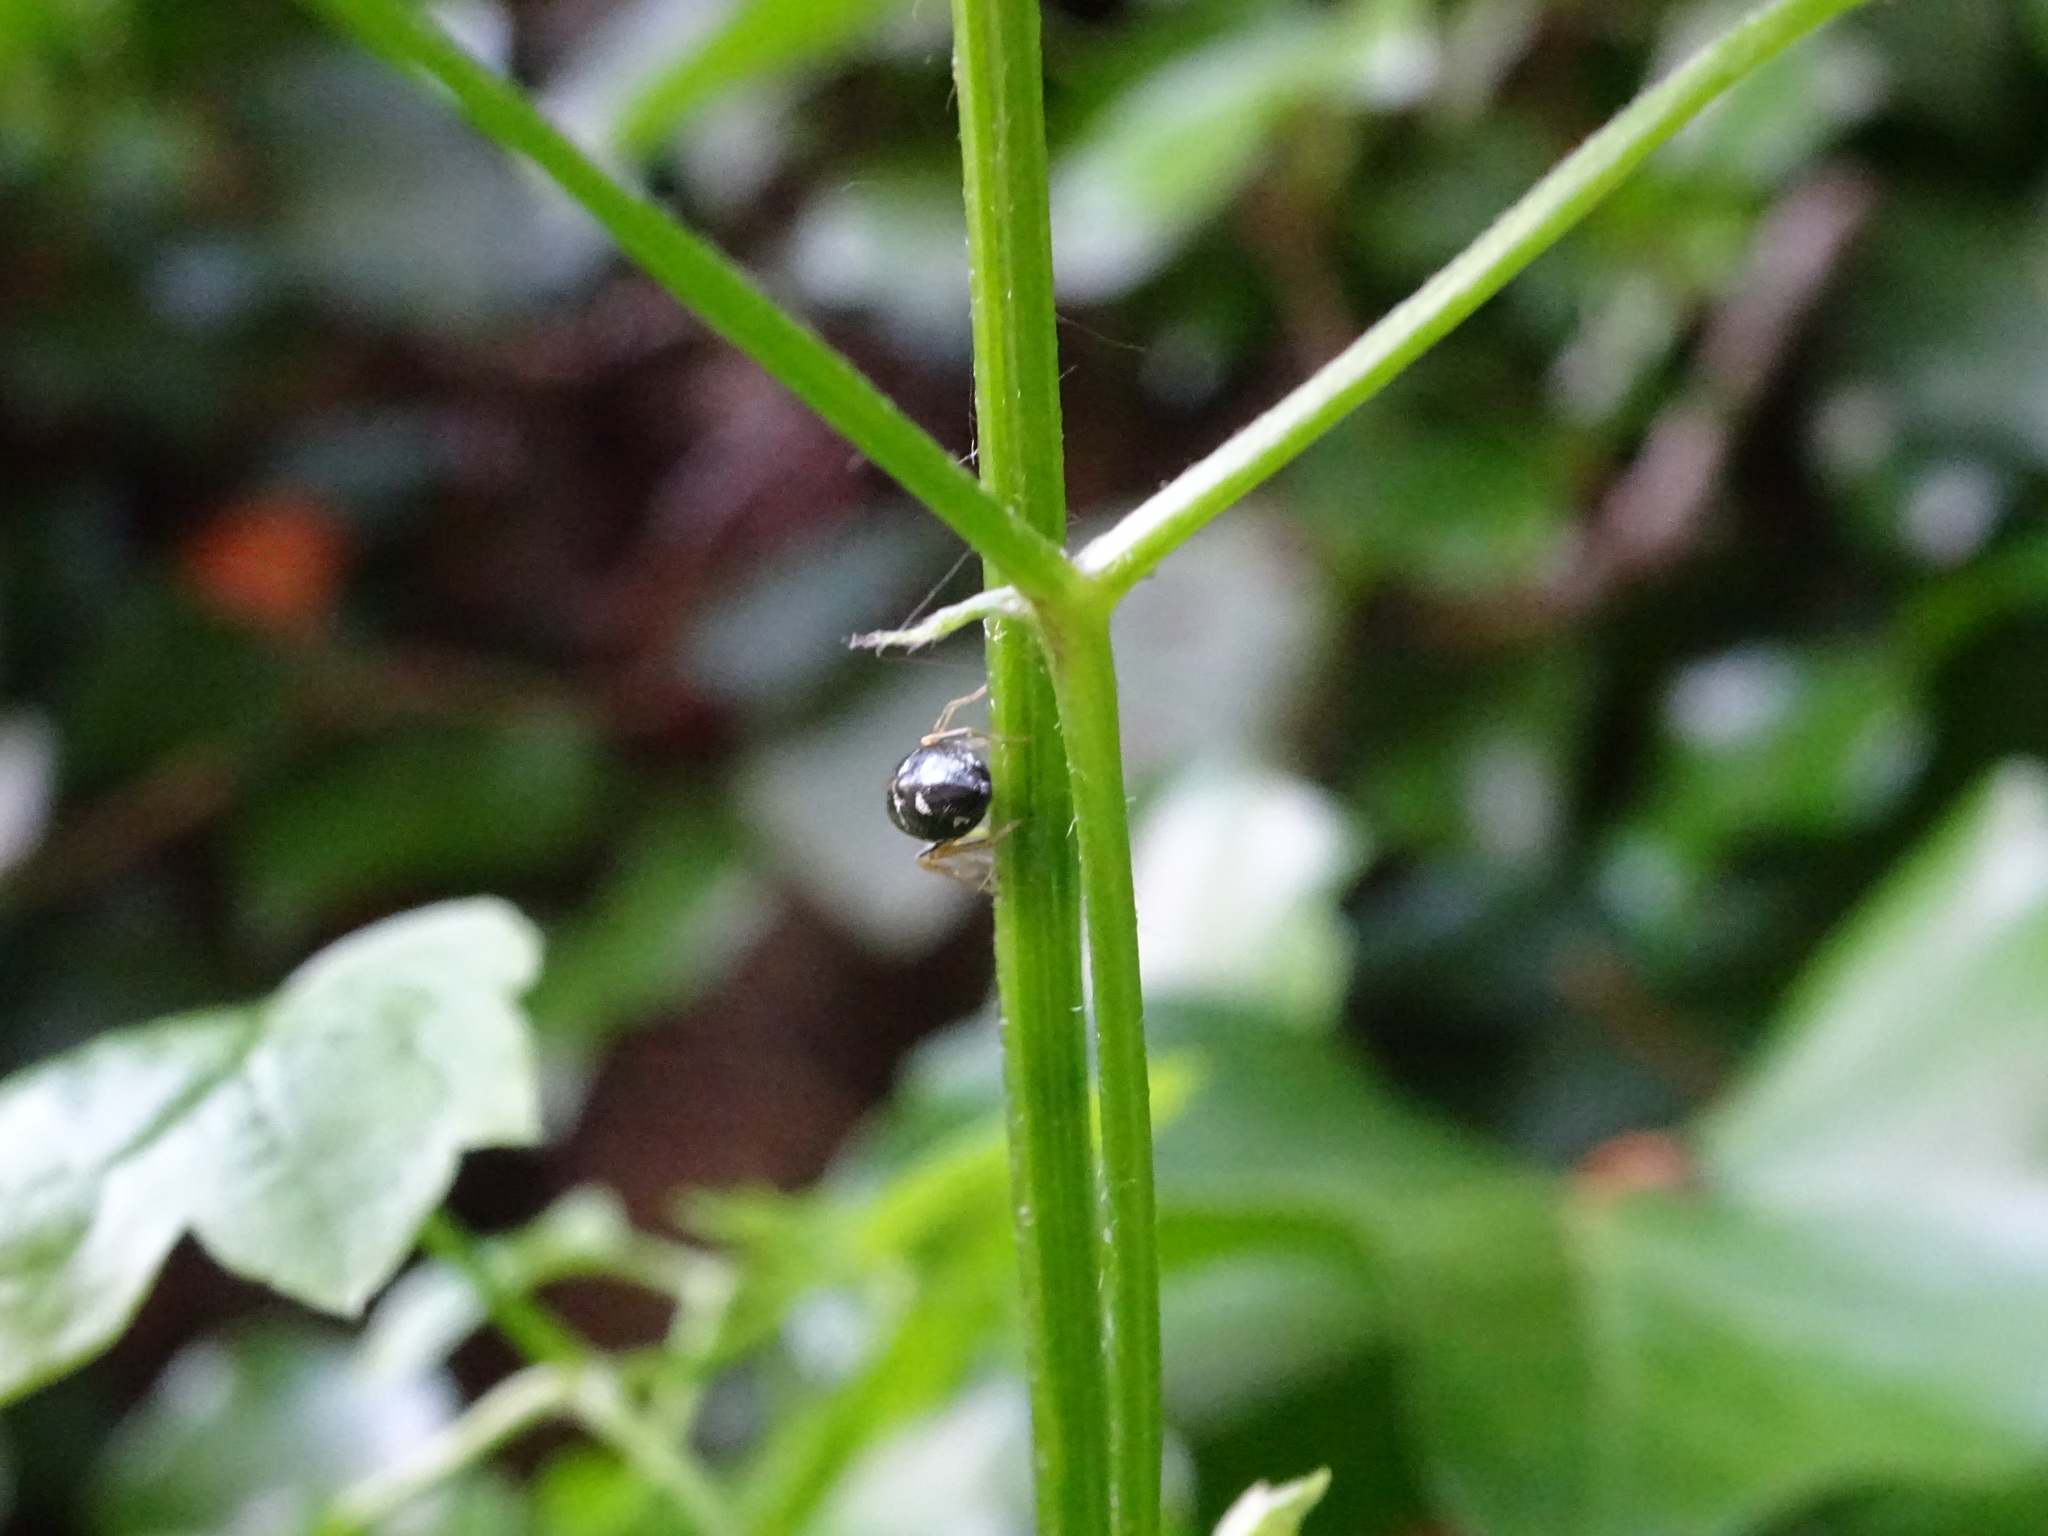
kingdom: Animalia
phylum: Arthropoda
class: Arachnida
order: Araneae
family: Salticidae
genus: Heliophanus
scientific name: Heliophanus cupreus
